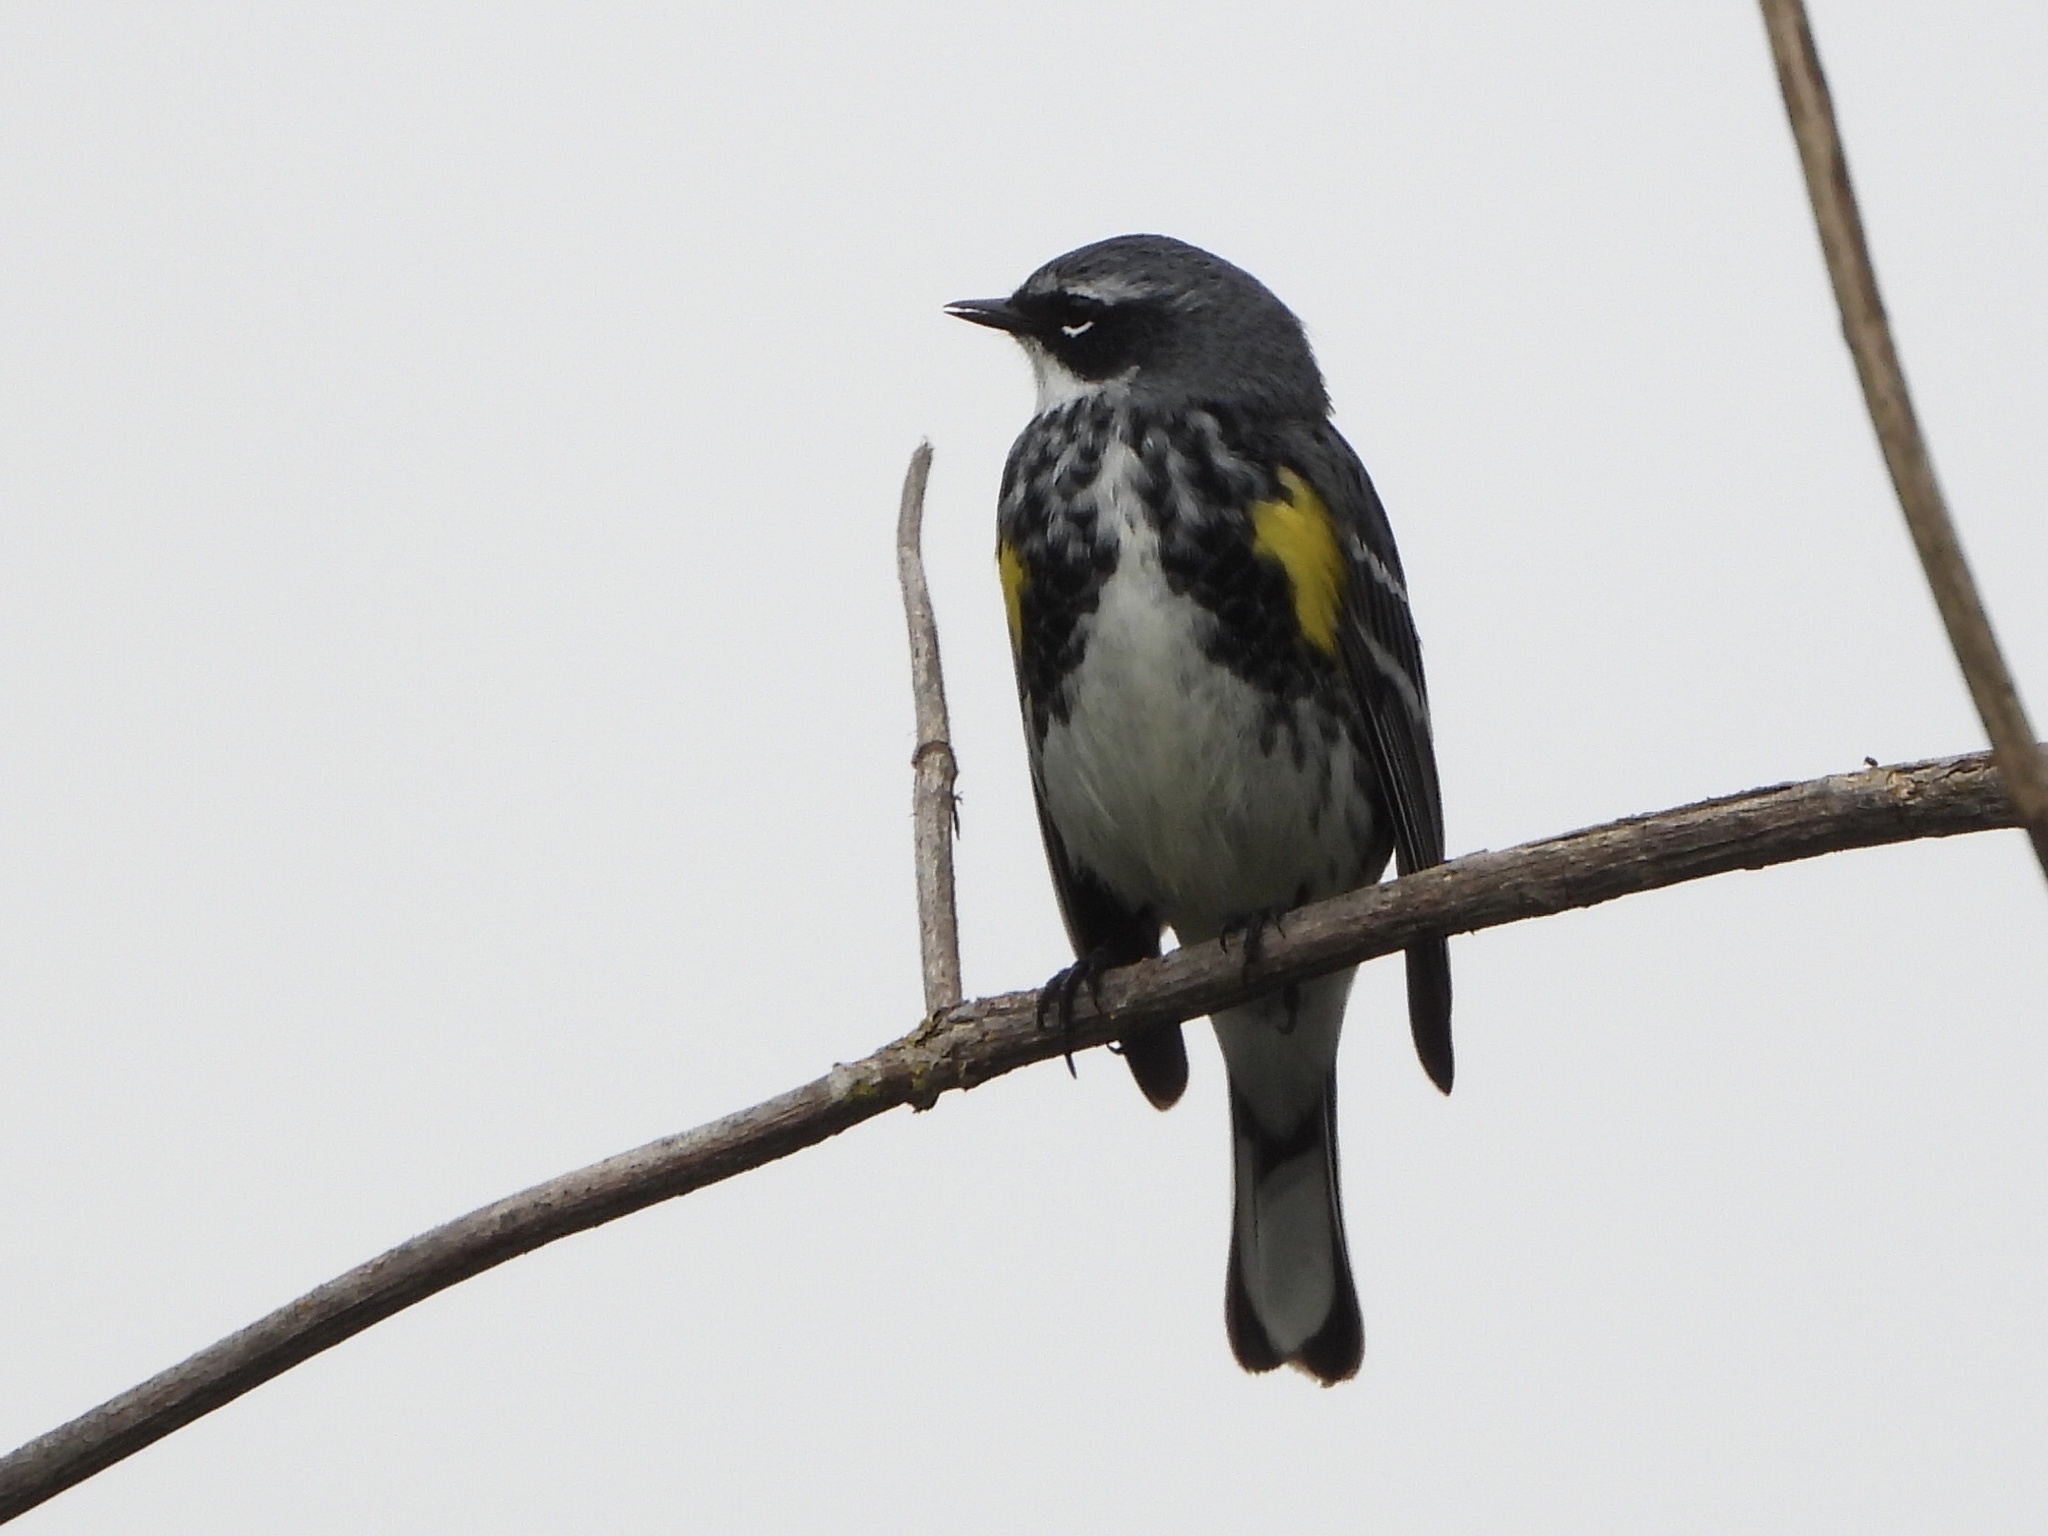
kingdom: Animalia
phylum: Chordata
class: Aves
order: Passeriformes
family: Parulidae
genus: Setophaga
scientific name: Setophaga coronata
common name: Myrtle warbler
